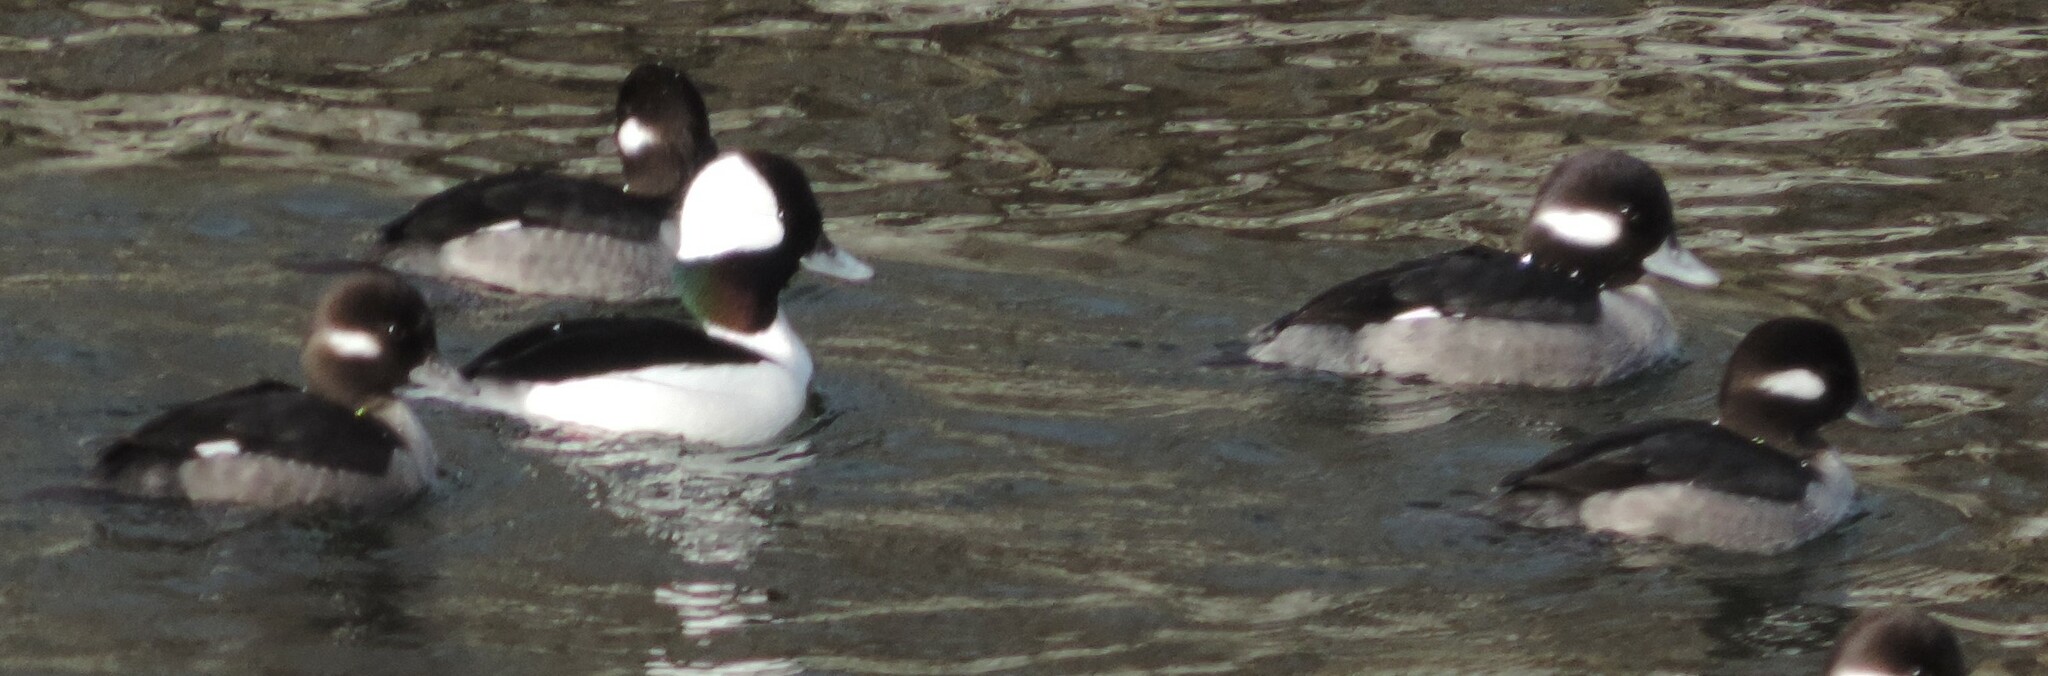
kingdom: Animalia
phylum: Chordata
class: Aves
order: Anseriformes
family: Anatidae
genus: Bucephala
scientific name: Bucephala albeola
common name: Bufflehead
